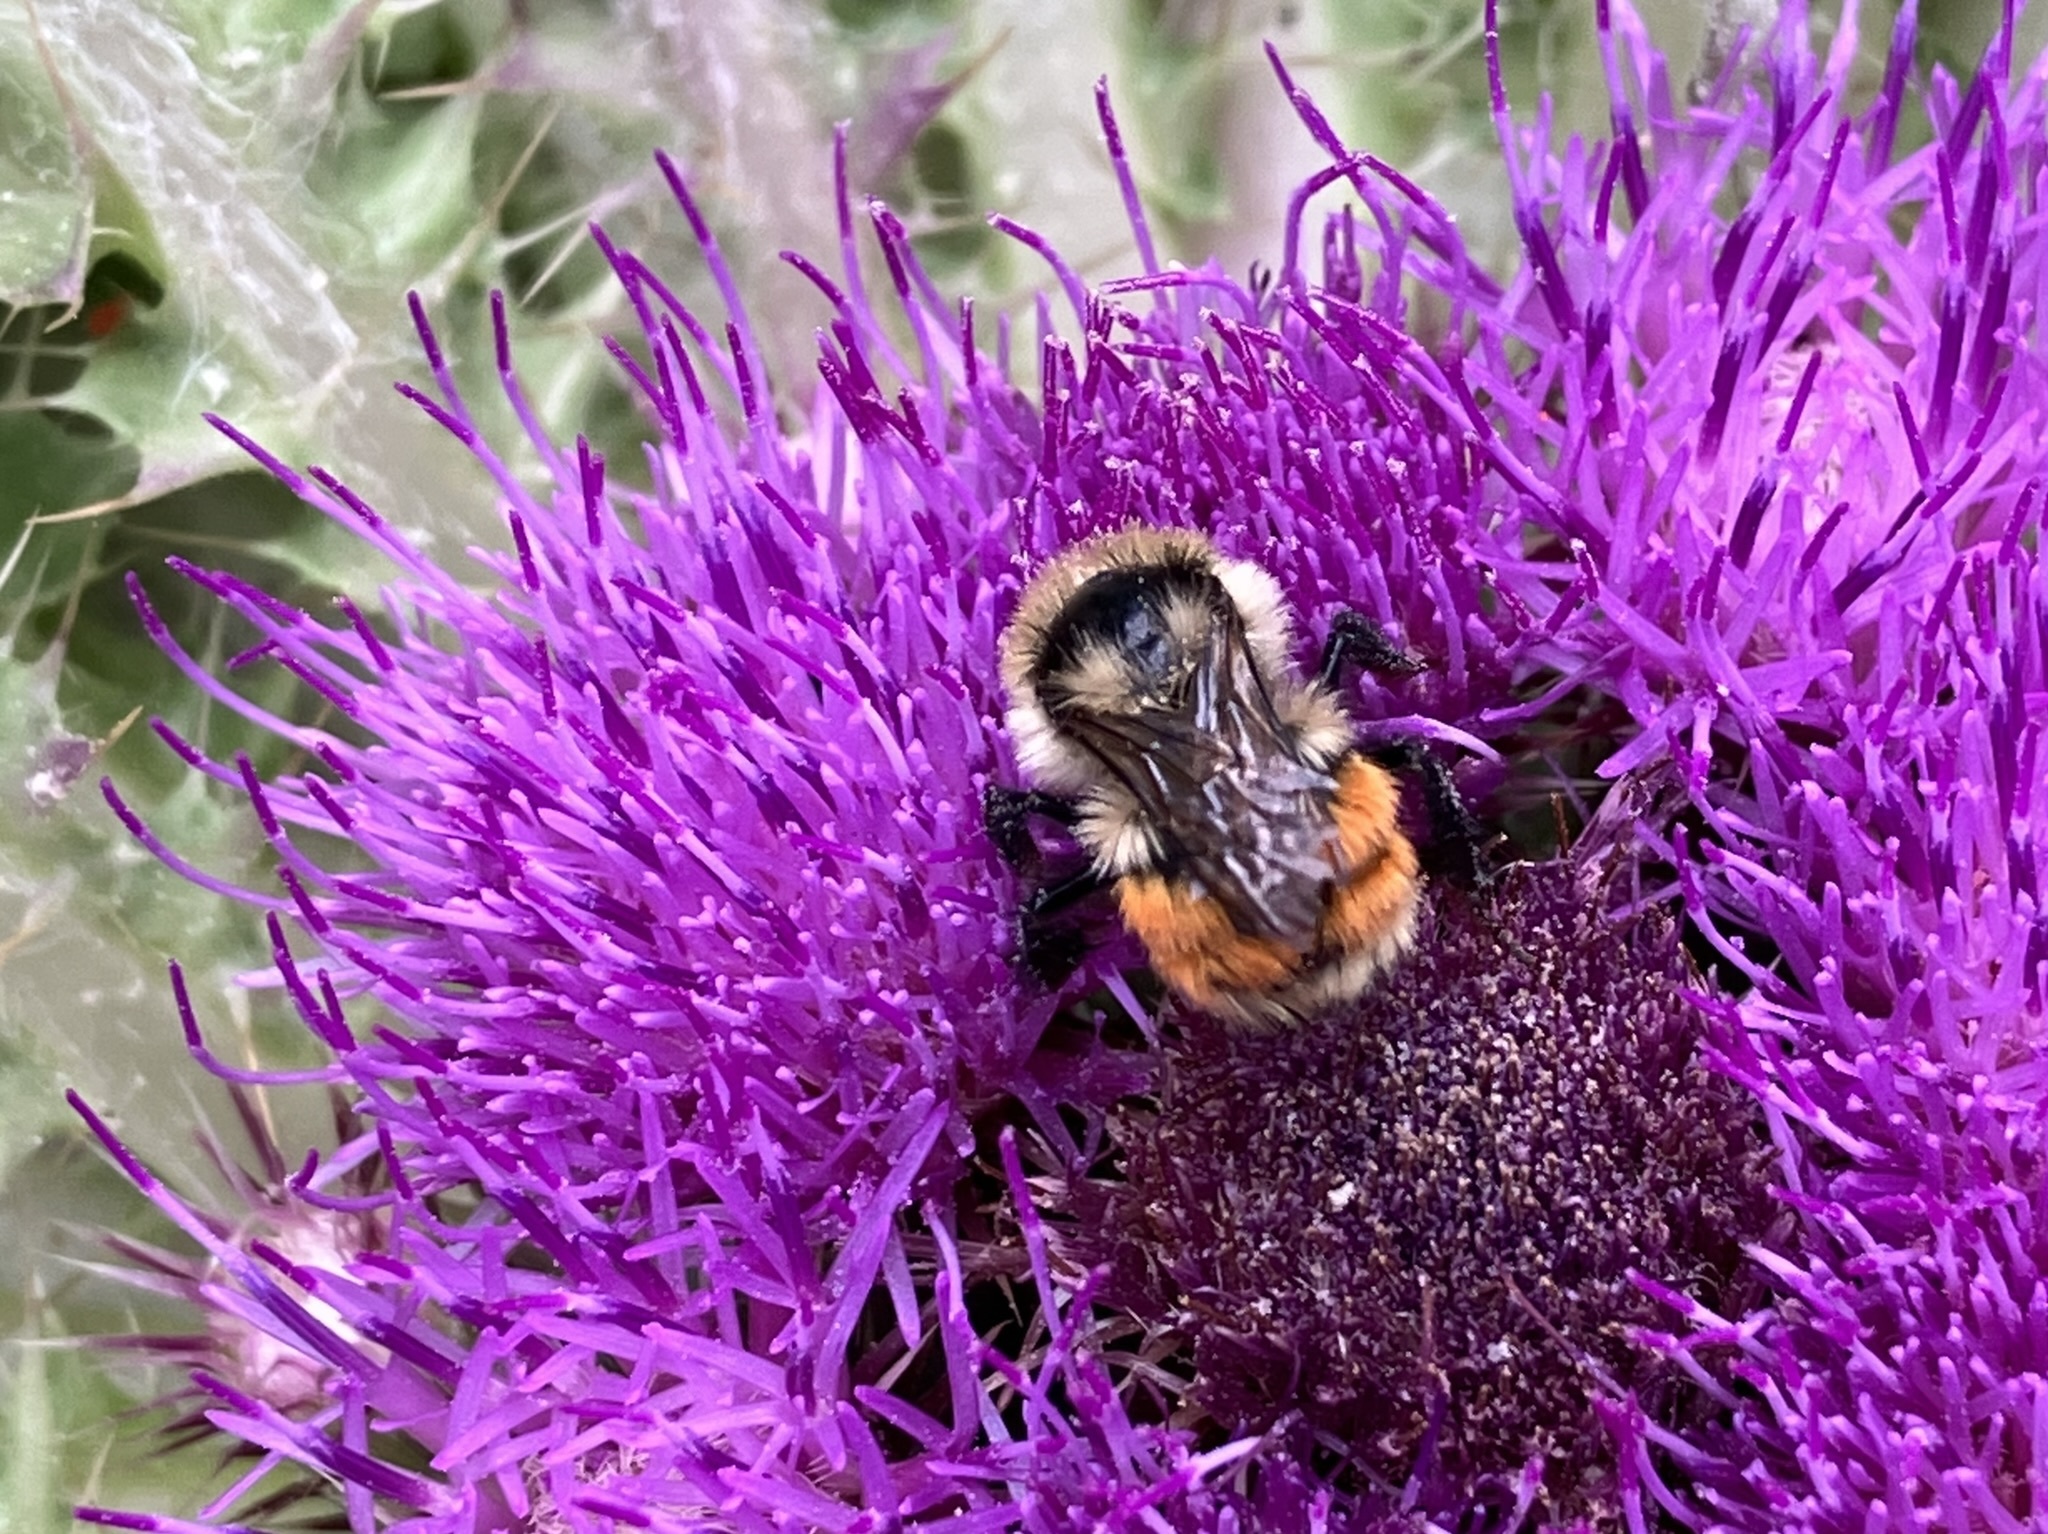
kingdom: Animalia
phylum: Arthropoda
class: Insecta
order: Hymenoptera
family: Apidae
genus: Bombus
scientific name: Bombus huntii
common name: Hunt bumble bee
